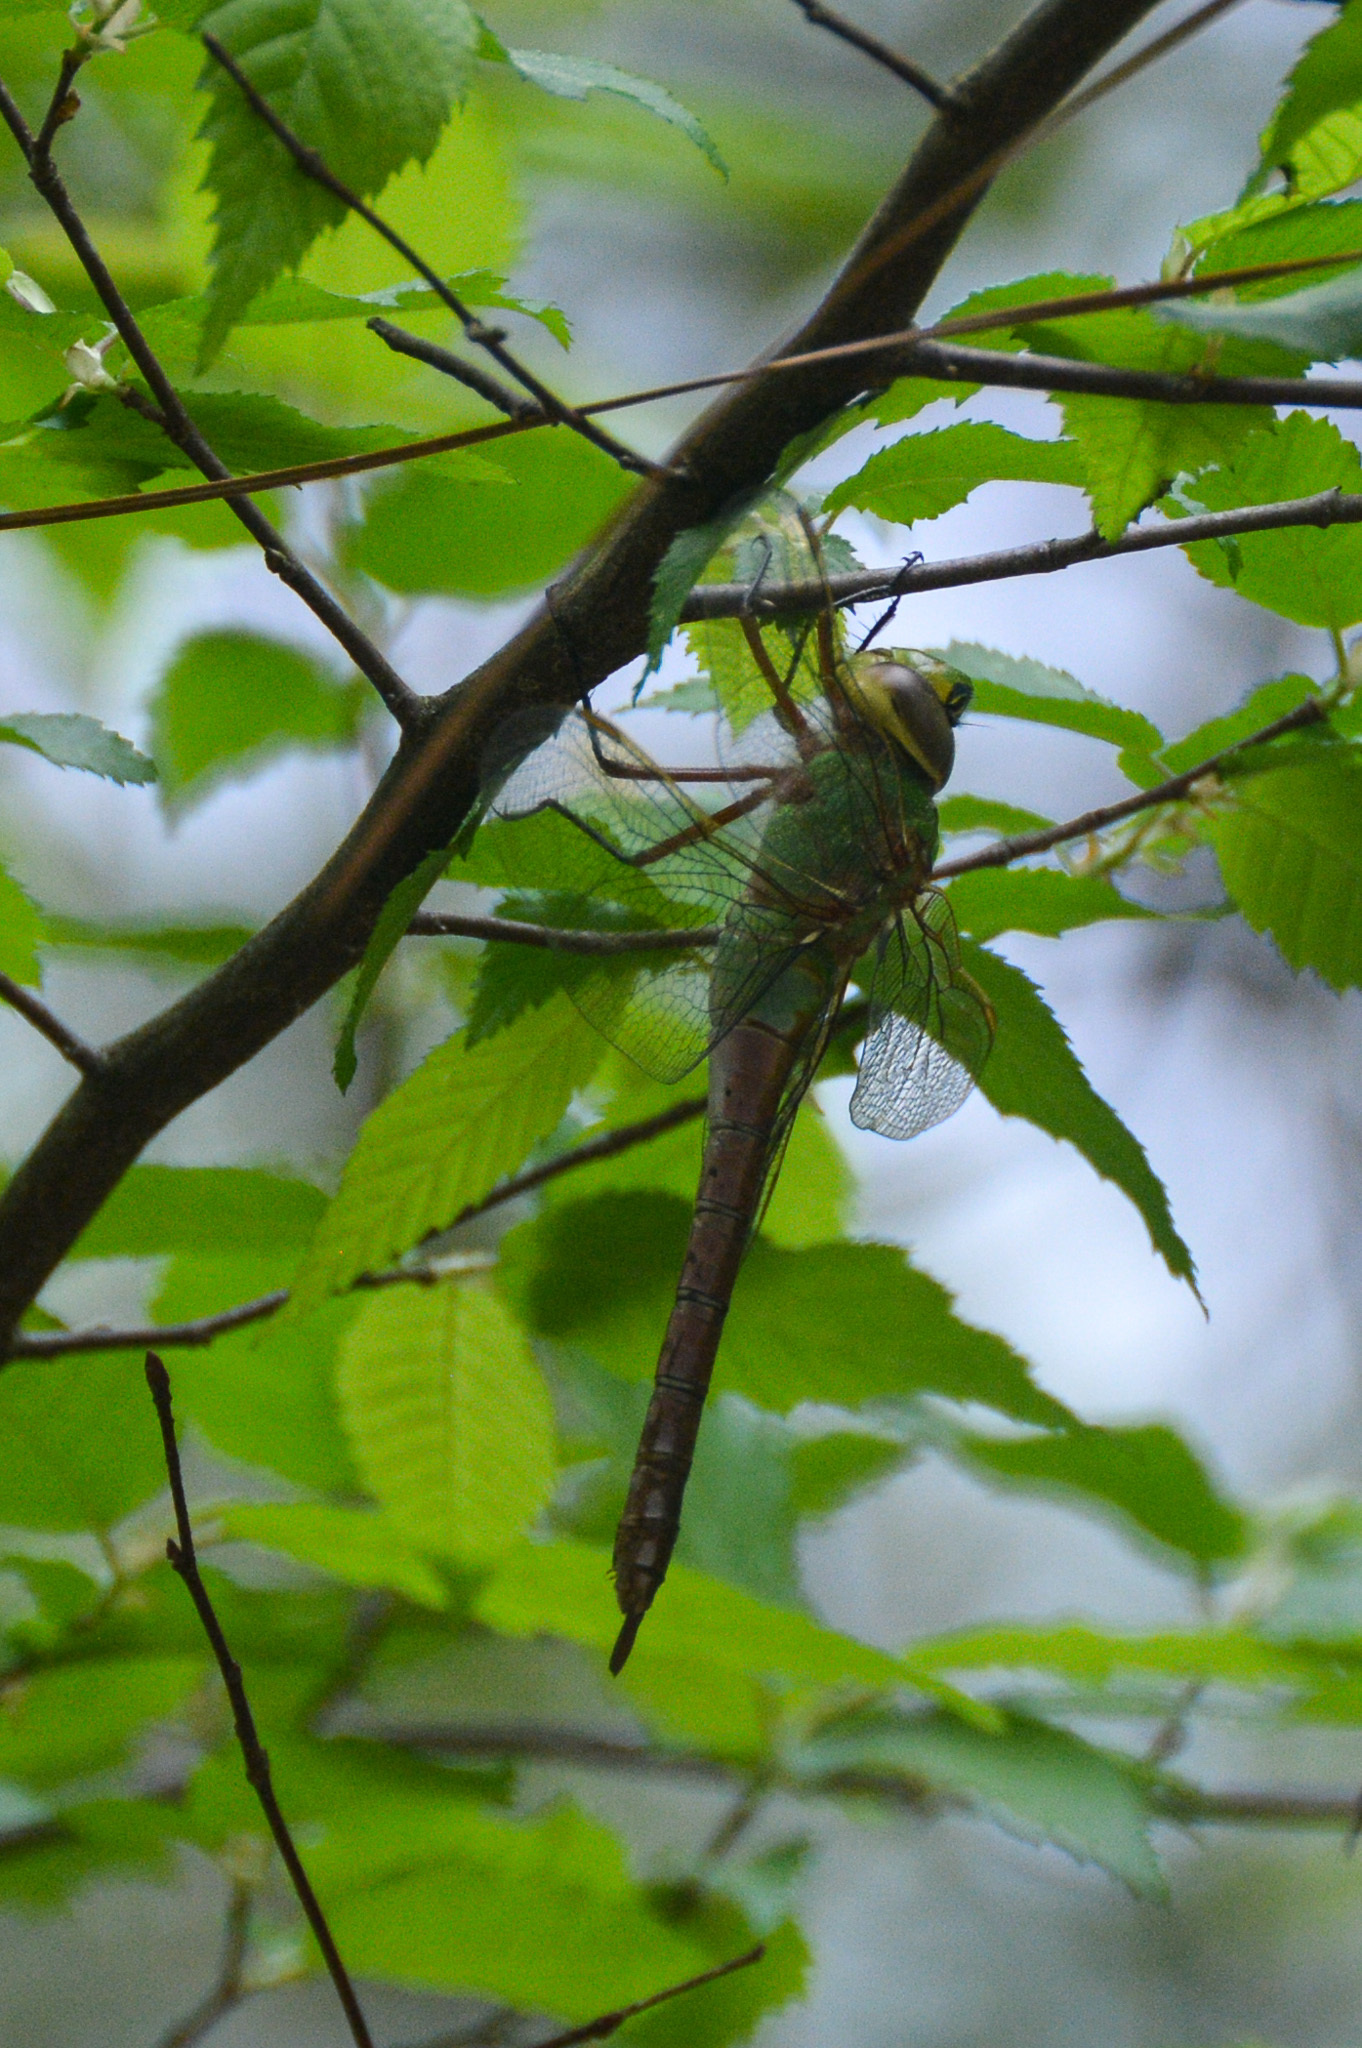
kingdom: Animalia
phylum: Arthropoda
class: Insecta
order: Odonata
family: Aeshnidae
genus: Anax
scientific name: Anax junius
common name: Common green darner
